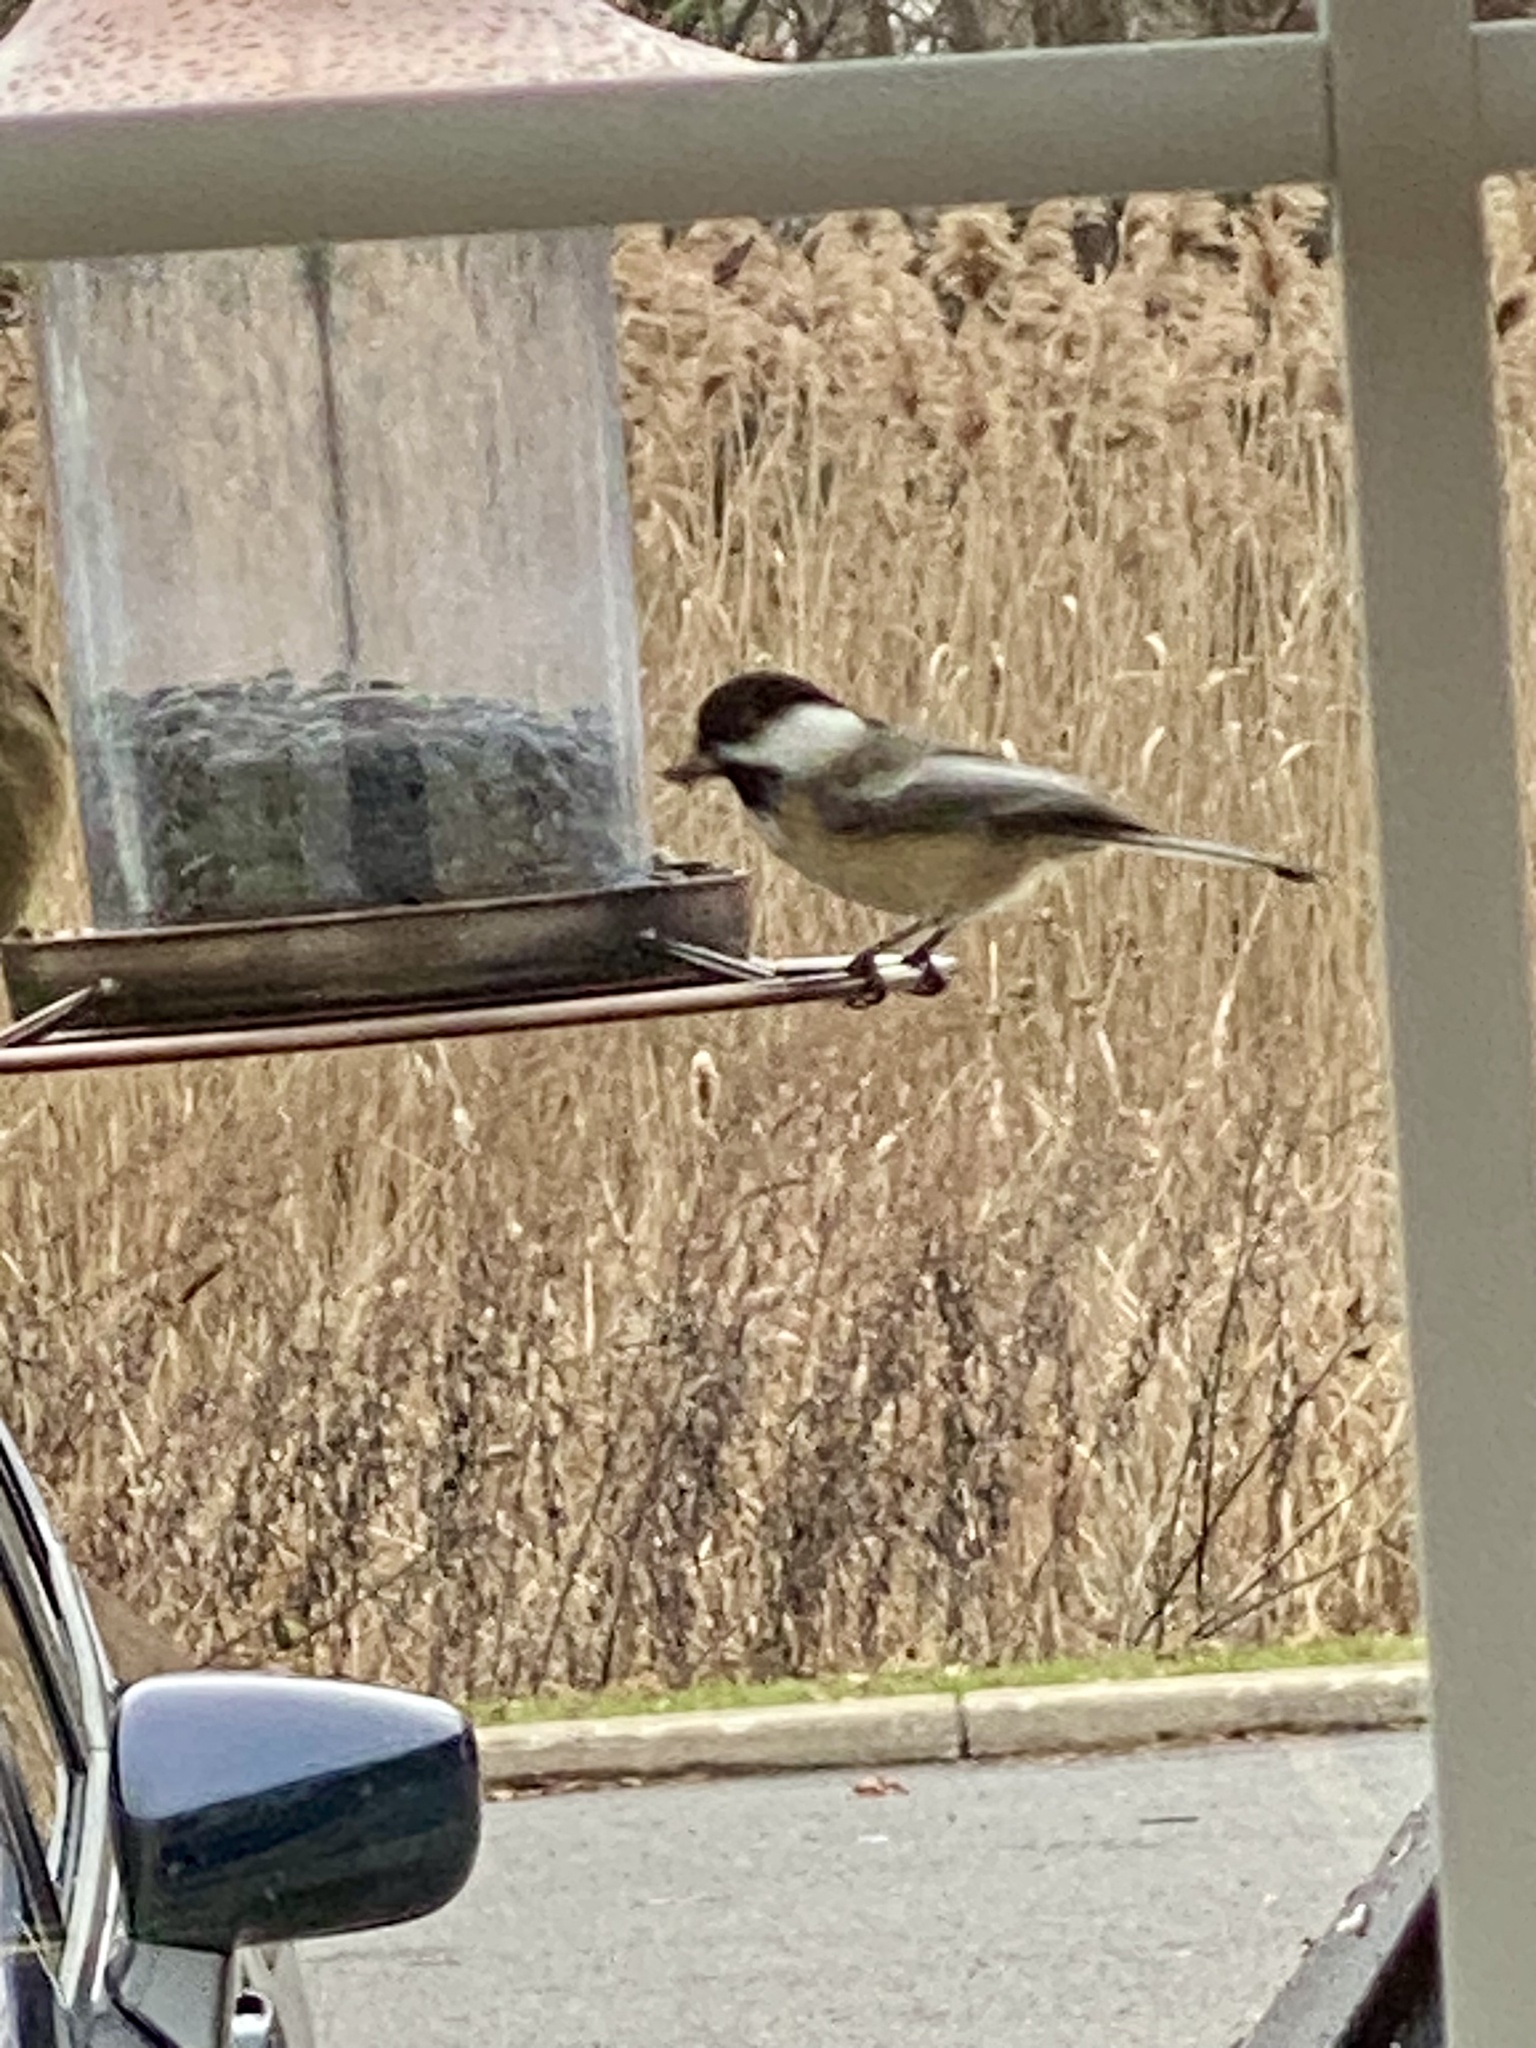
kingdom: Animalia
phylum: Chordata
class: Aves
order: Passeriformes
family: Paridae
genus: Poecile
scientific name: Poecile atricapillus
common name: Black-capped chickadee
